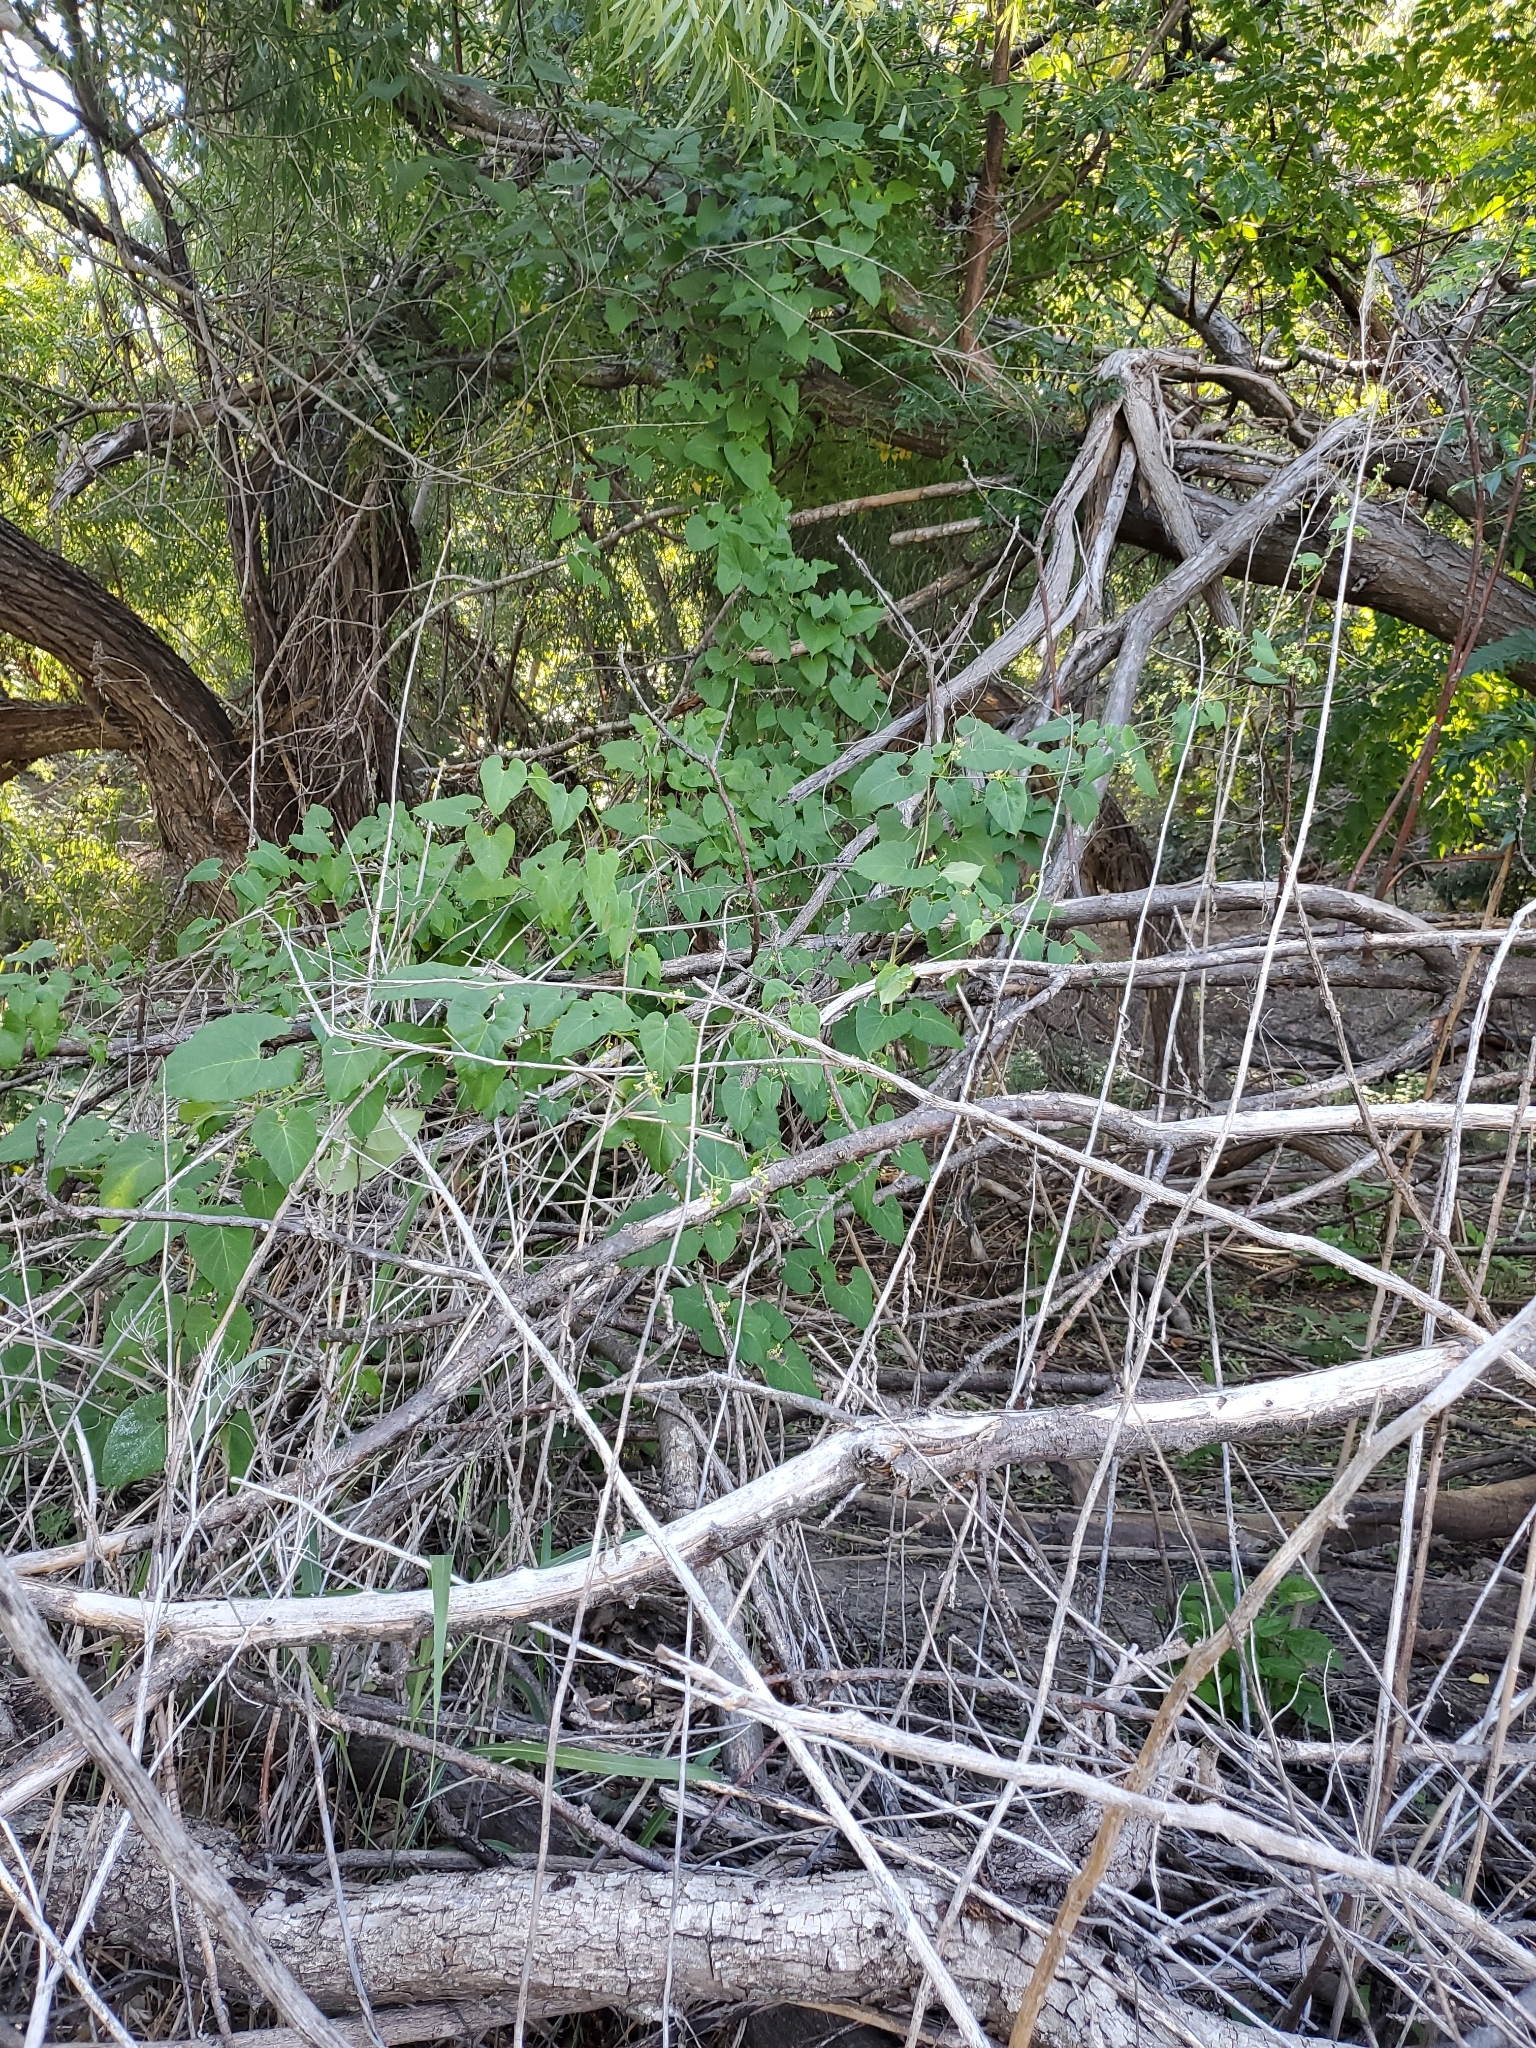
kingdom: Plantae
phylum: Tracheophyta
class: Magnoliopsida
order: Gentianales
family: Apocynaceae
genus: Cynanchum
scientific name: Cynanchum racemosum
